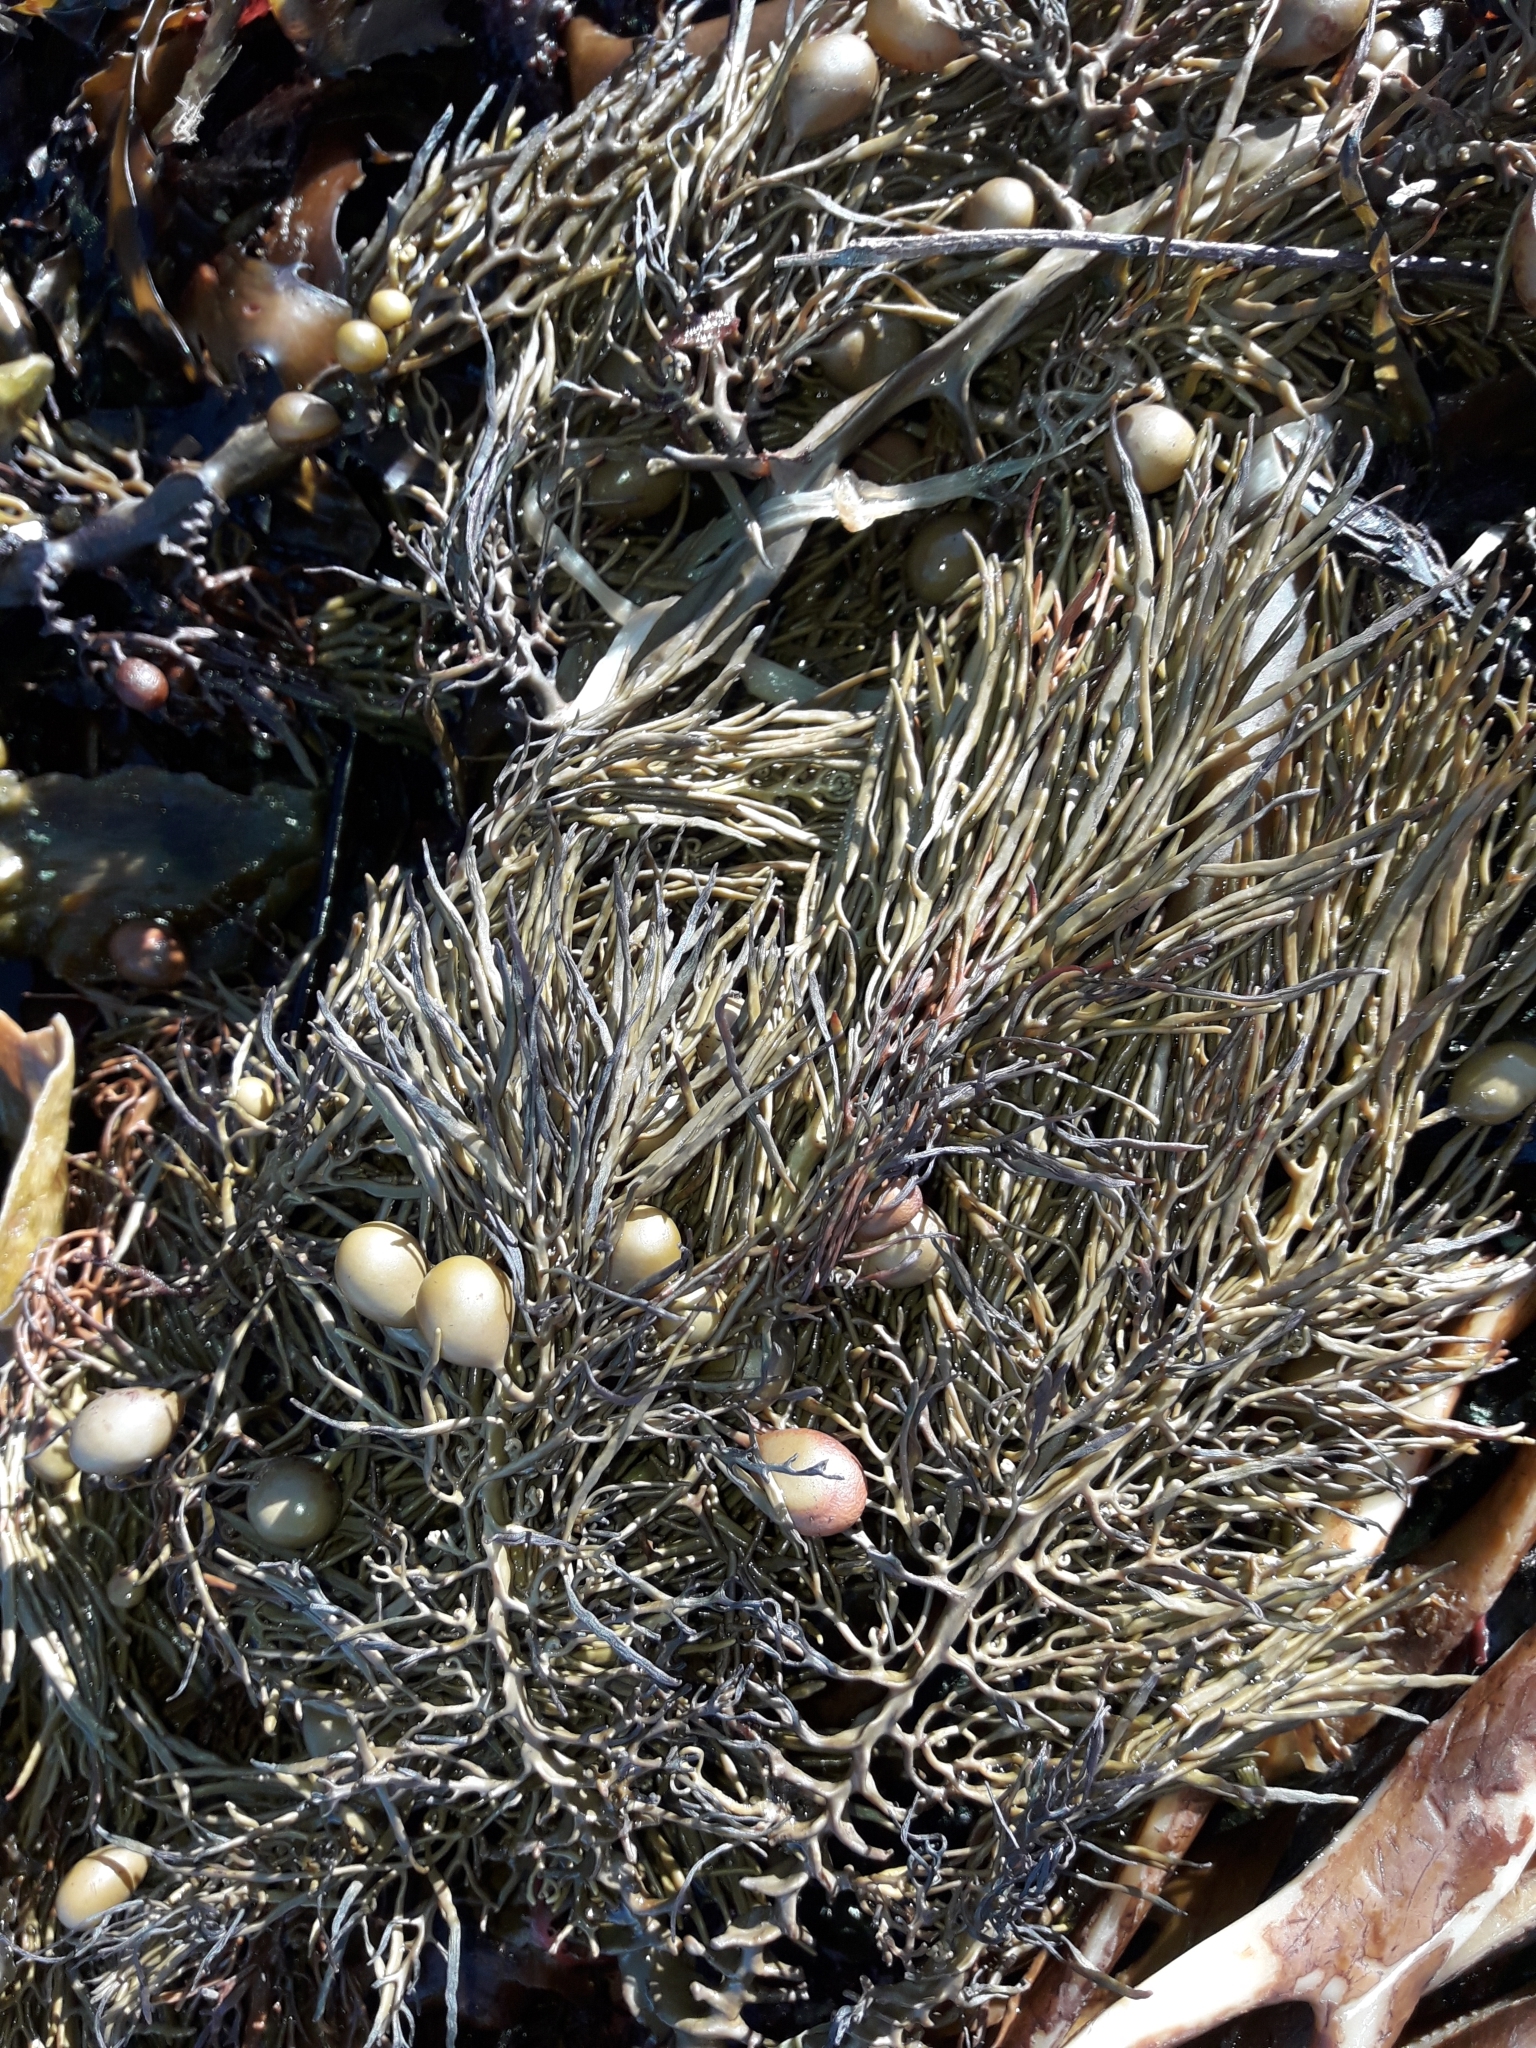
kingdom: Chromista
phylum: Ochrophyta
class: Phaeophyceae
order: Fucales
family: Sargassaceae
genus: Cystophora
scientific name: Cystophora retroflexa
